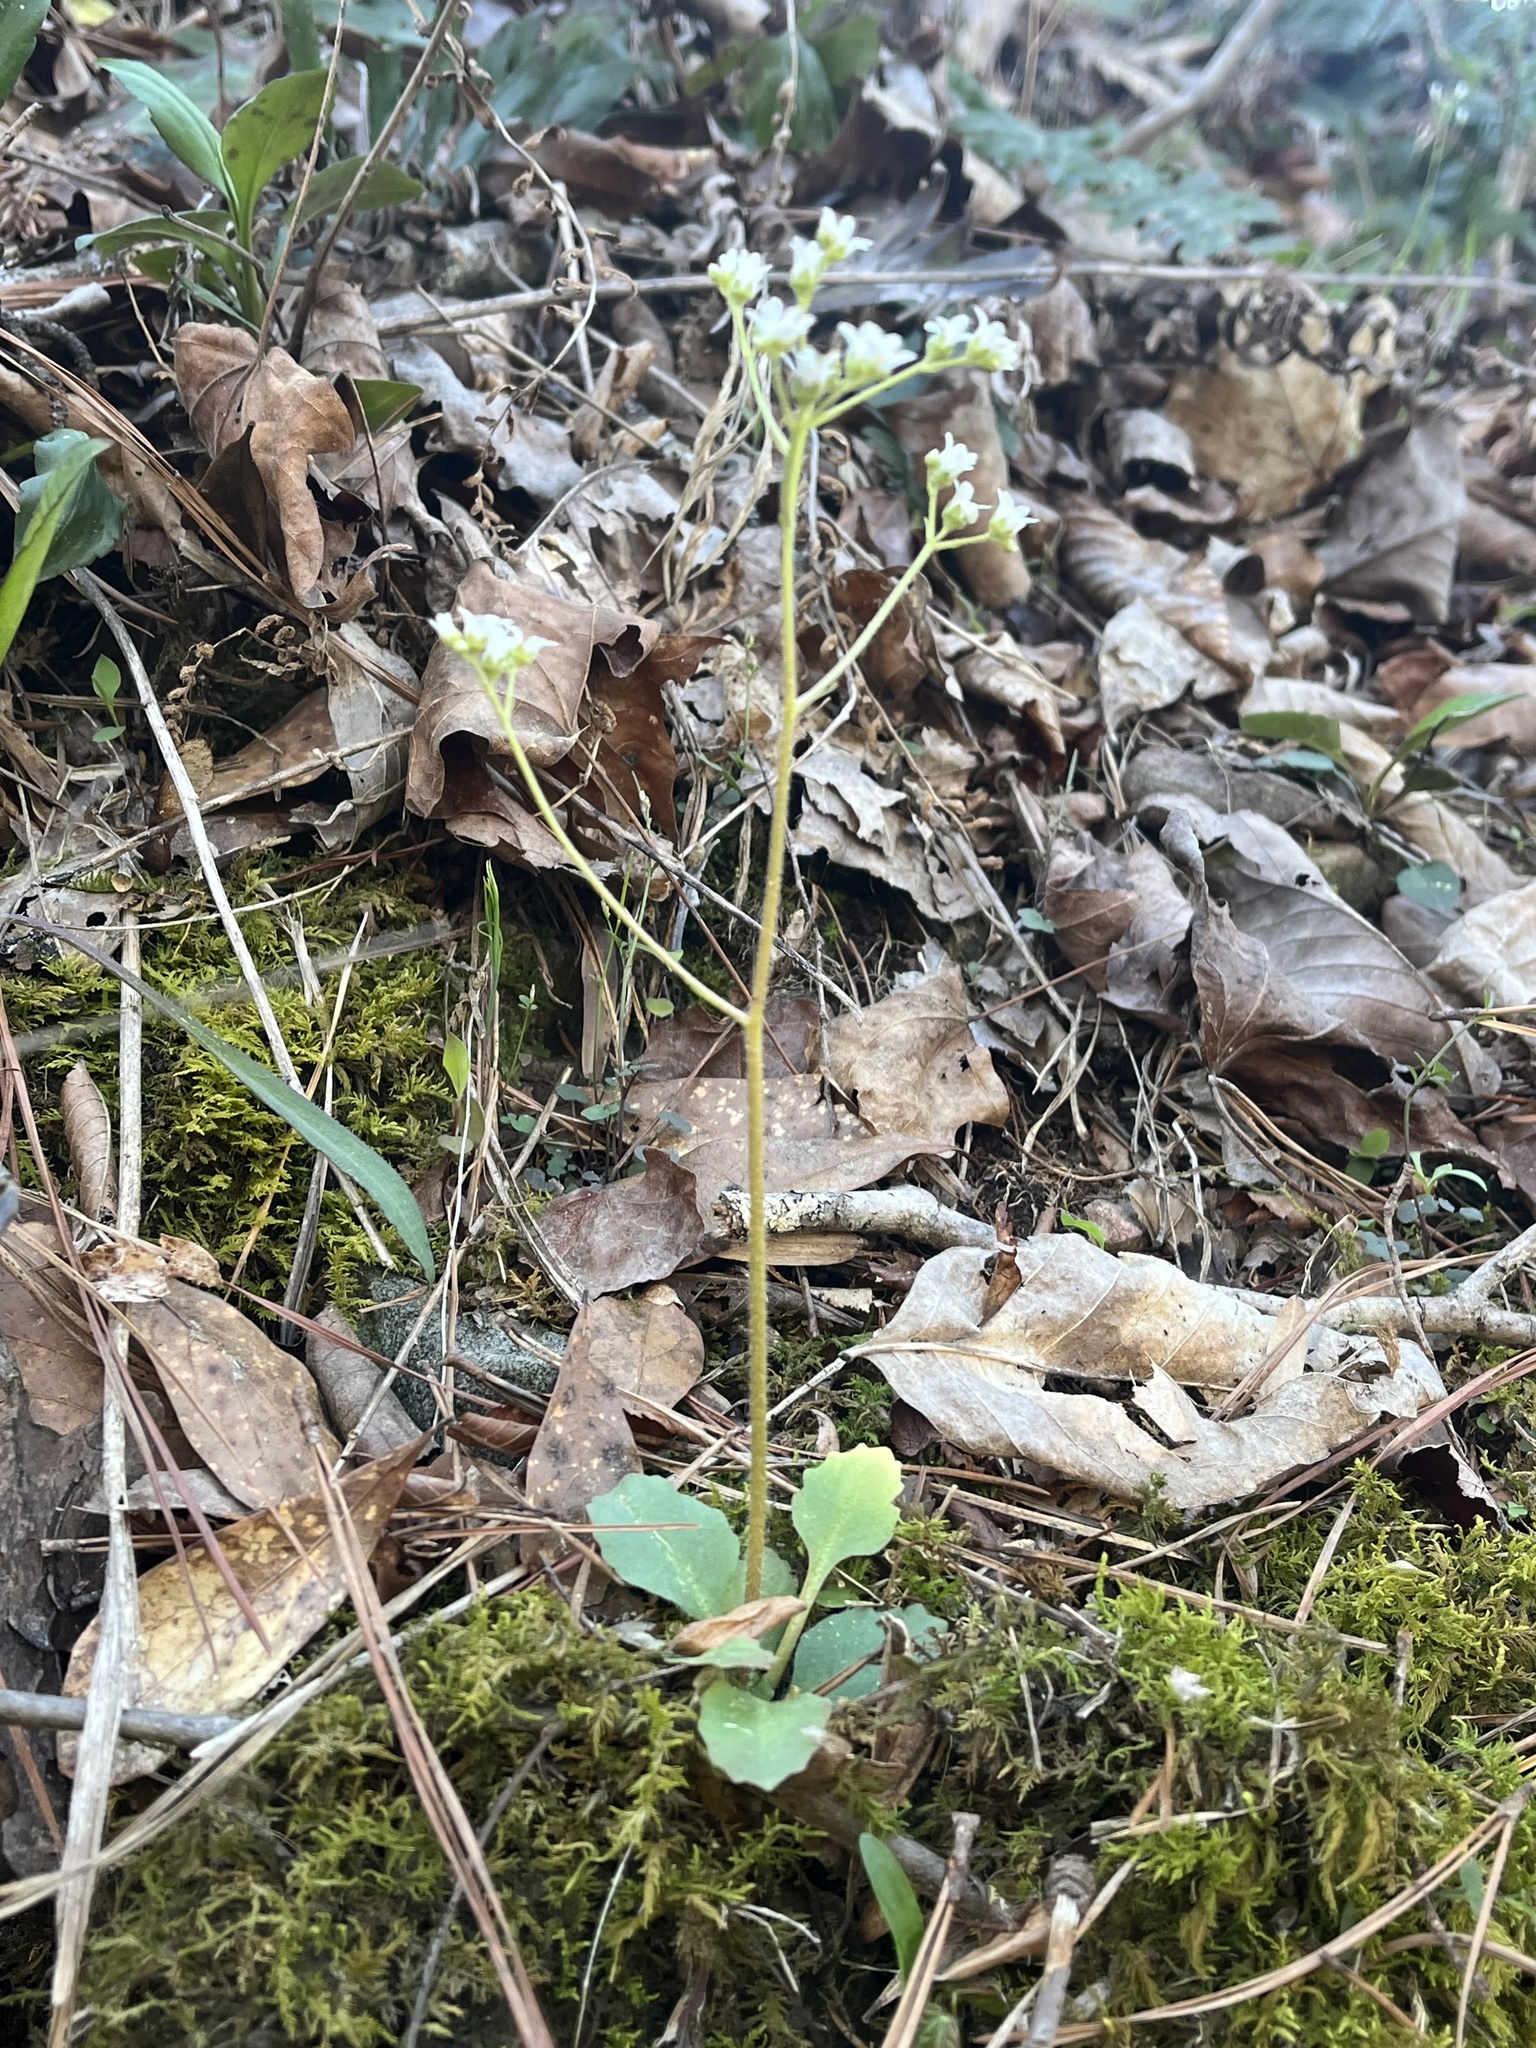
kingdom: Plantae
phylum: Tracheophyta
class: Magnoliopsida
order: Saxifragales
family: Saxifragaceae
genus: Micranthes
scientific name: Micranthes virginiensis
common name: Early saxifrage
